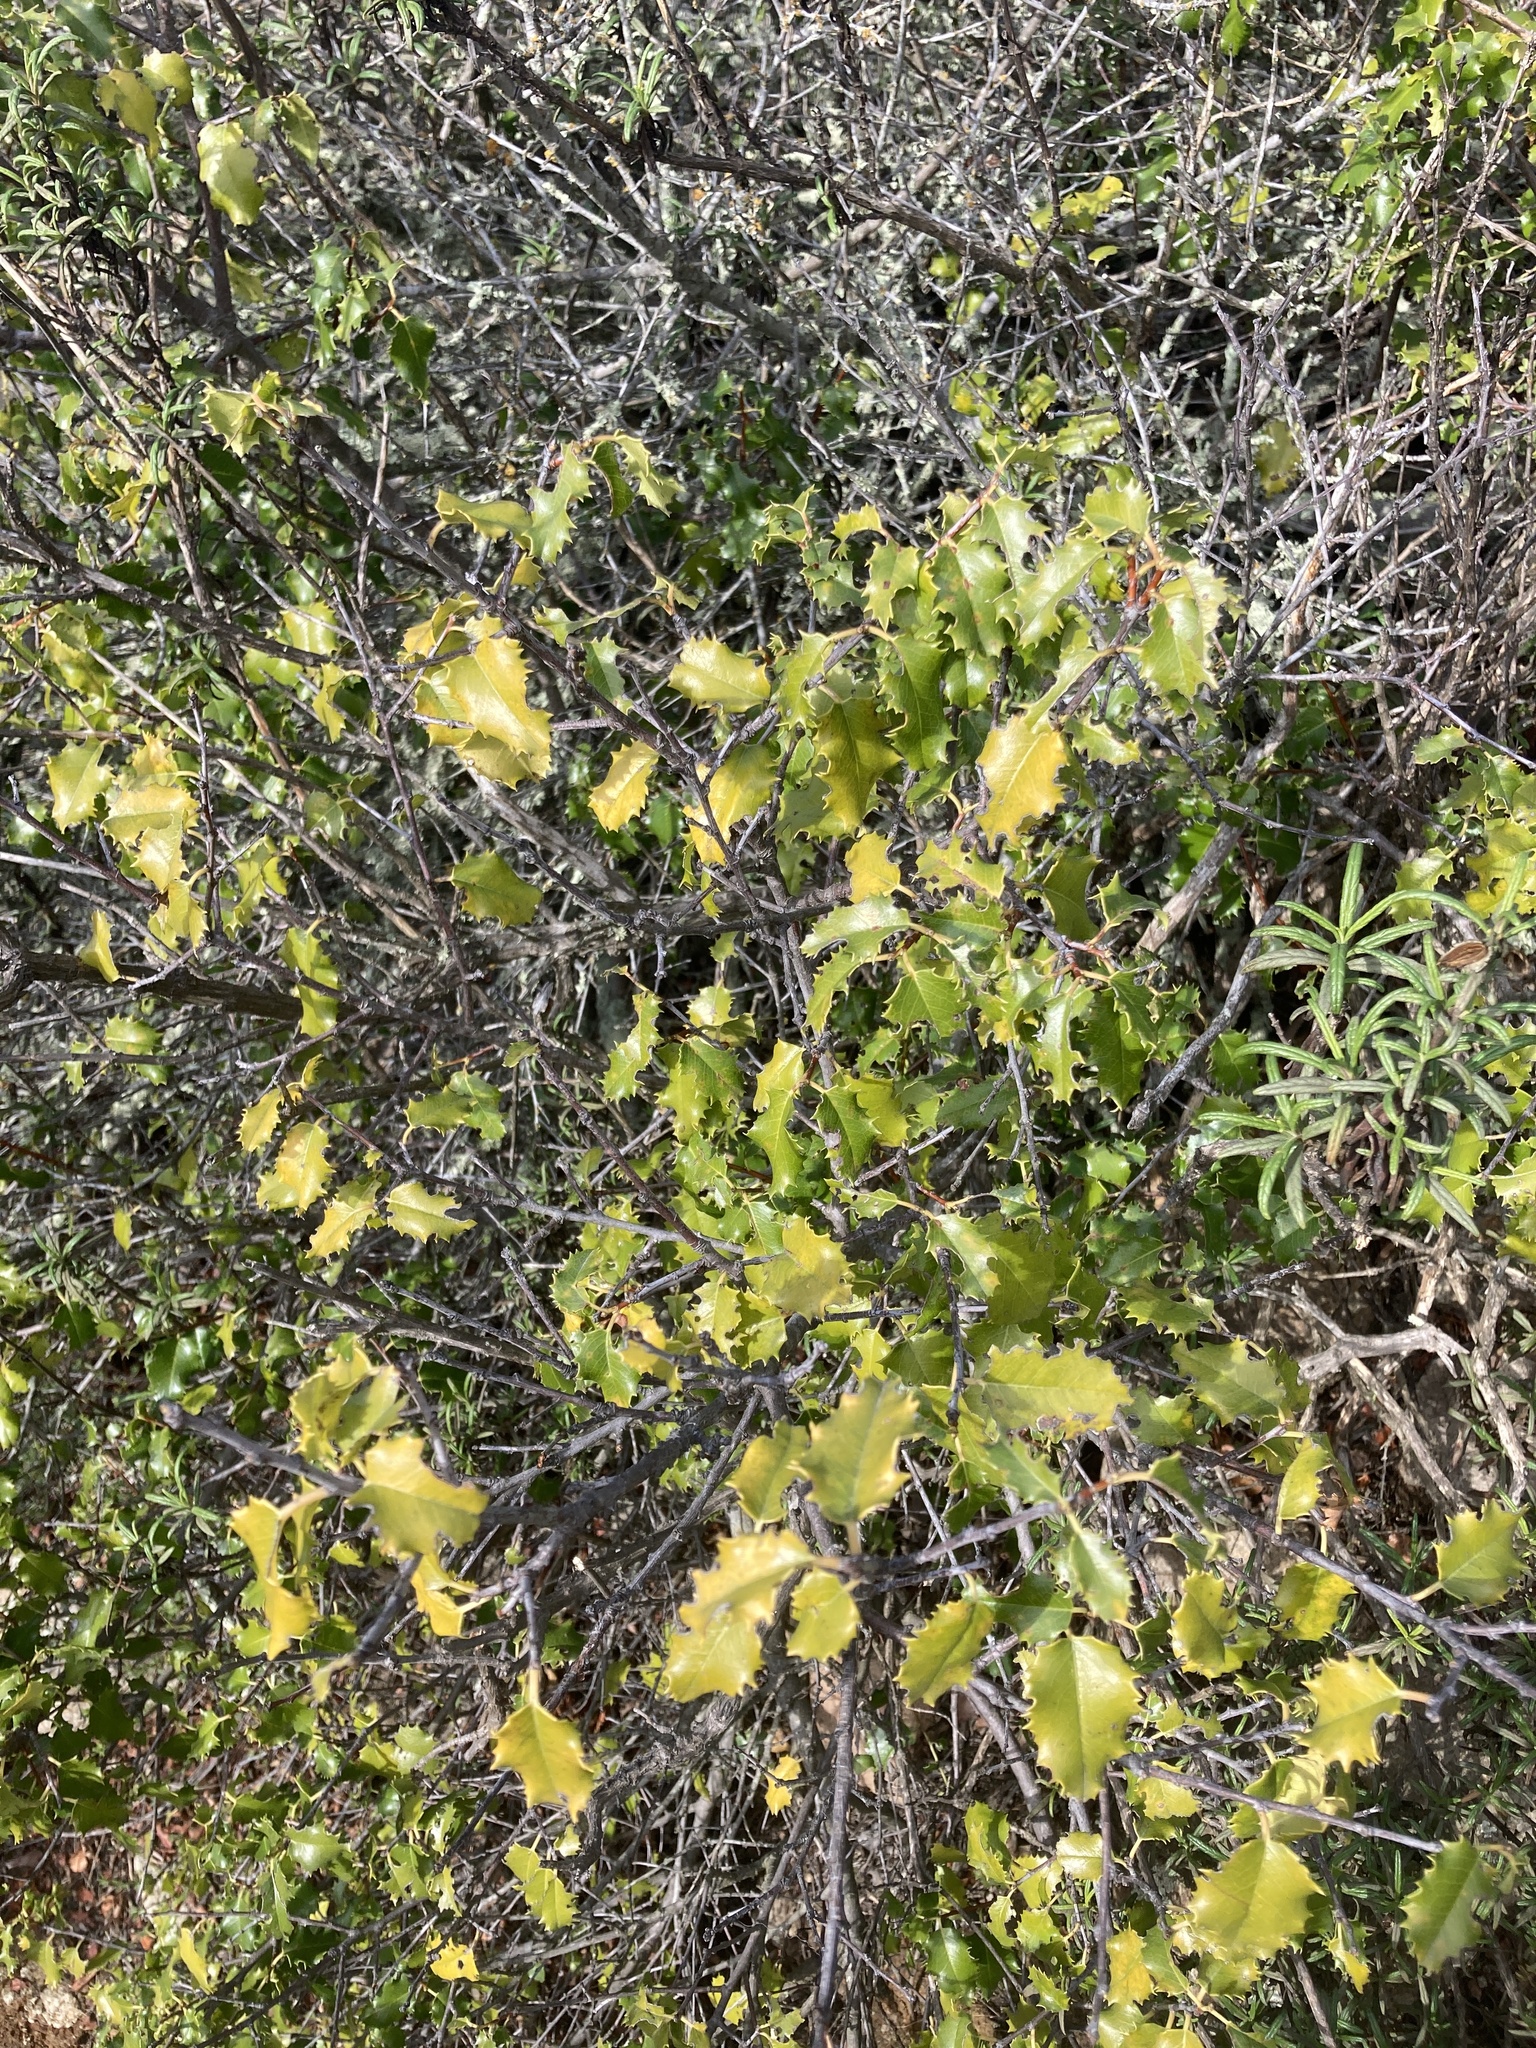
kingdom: Plantae
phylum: Tracheophyta
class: Magnoliopsida
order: Rosales
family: Rosaceae
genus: Prunus
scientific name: Prunus ilicifolia
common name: Hollyleaf cherry
